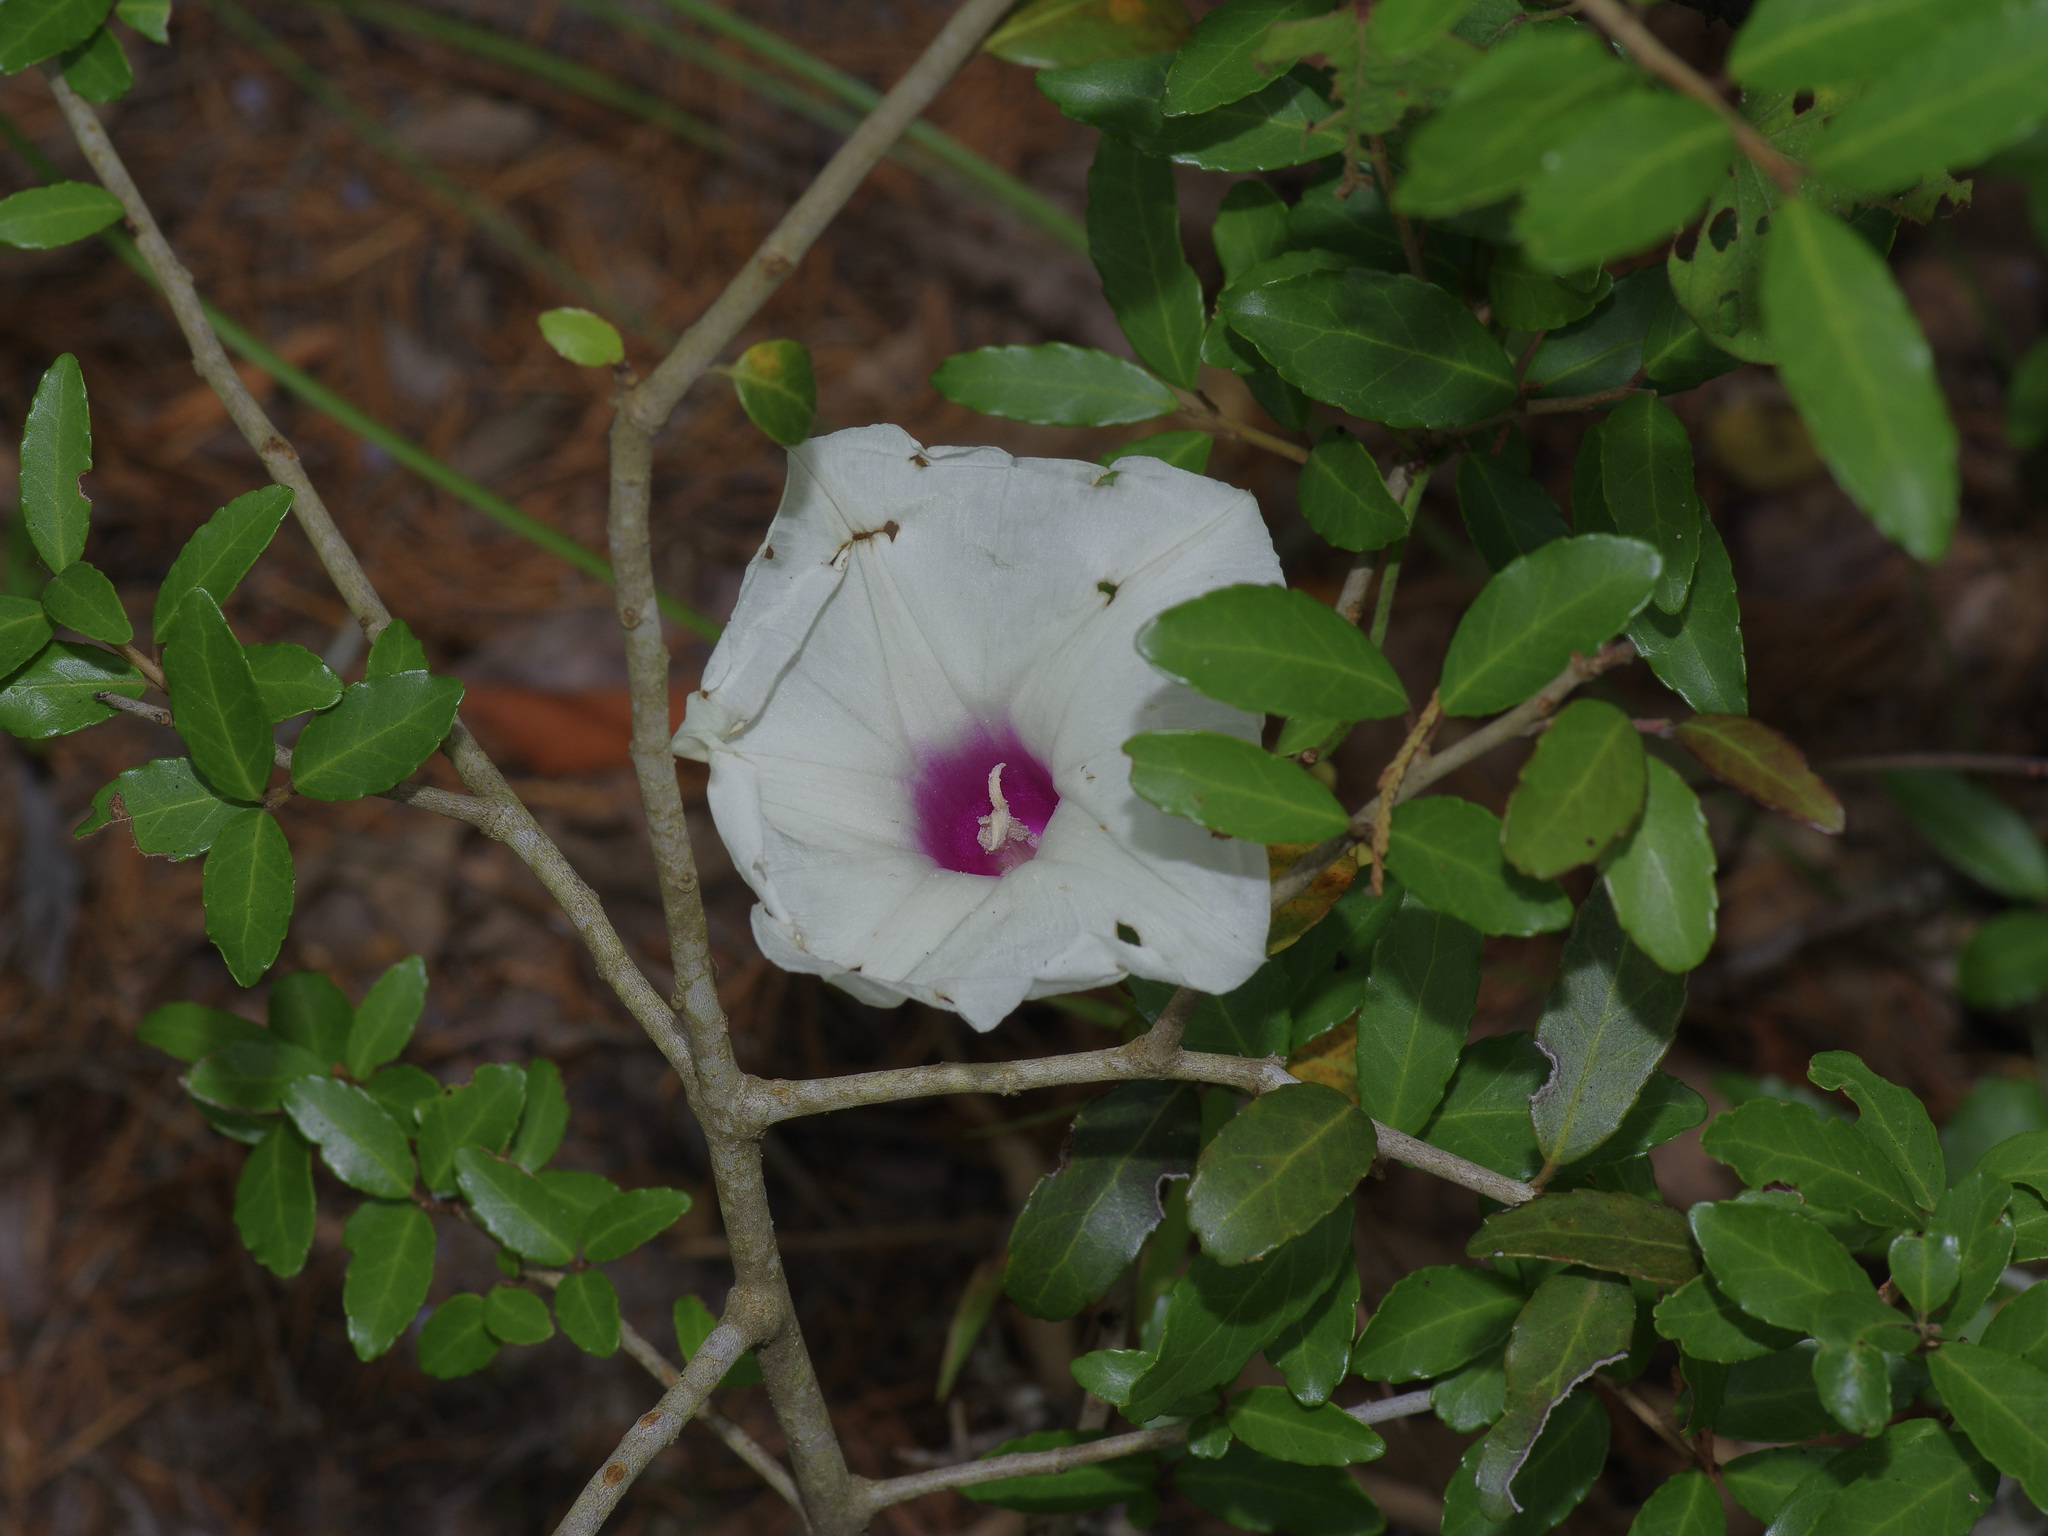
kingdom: Plantae
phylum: Tracheophyta
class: Magnoliopsida
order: Solanales
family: Convolvulaceae
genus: Ipomoea
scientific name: Ipomoea pandurata
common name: Man-of-the-earth
